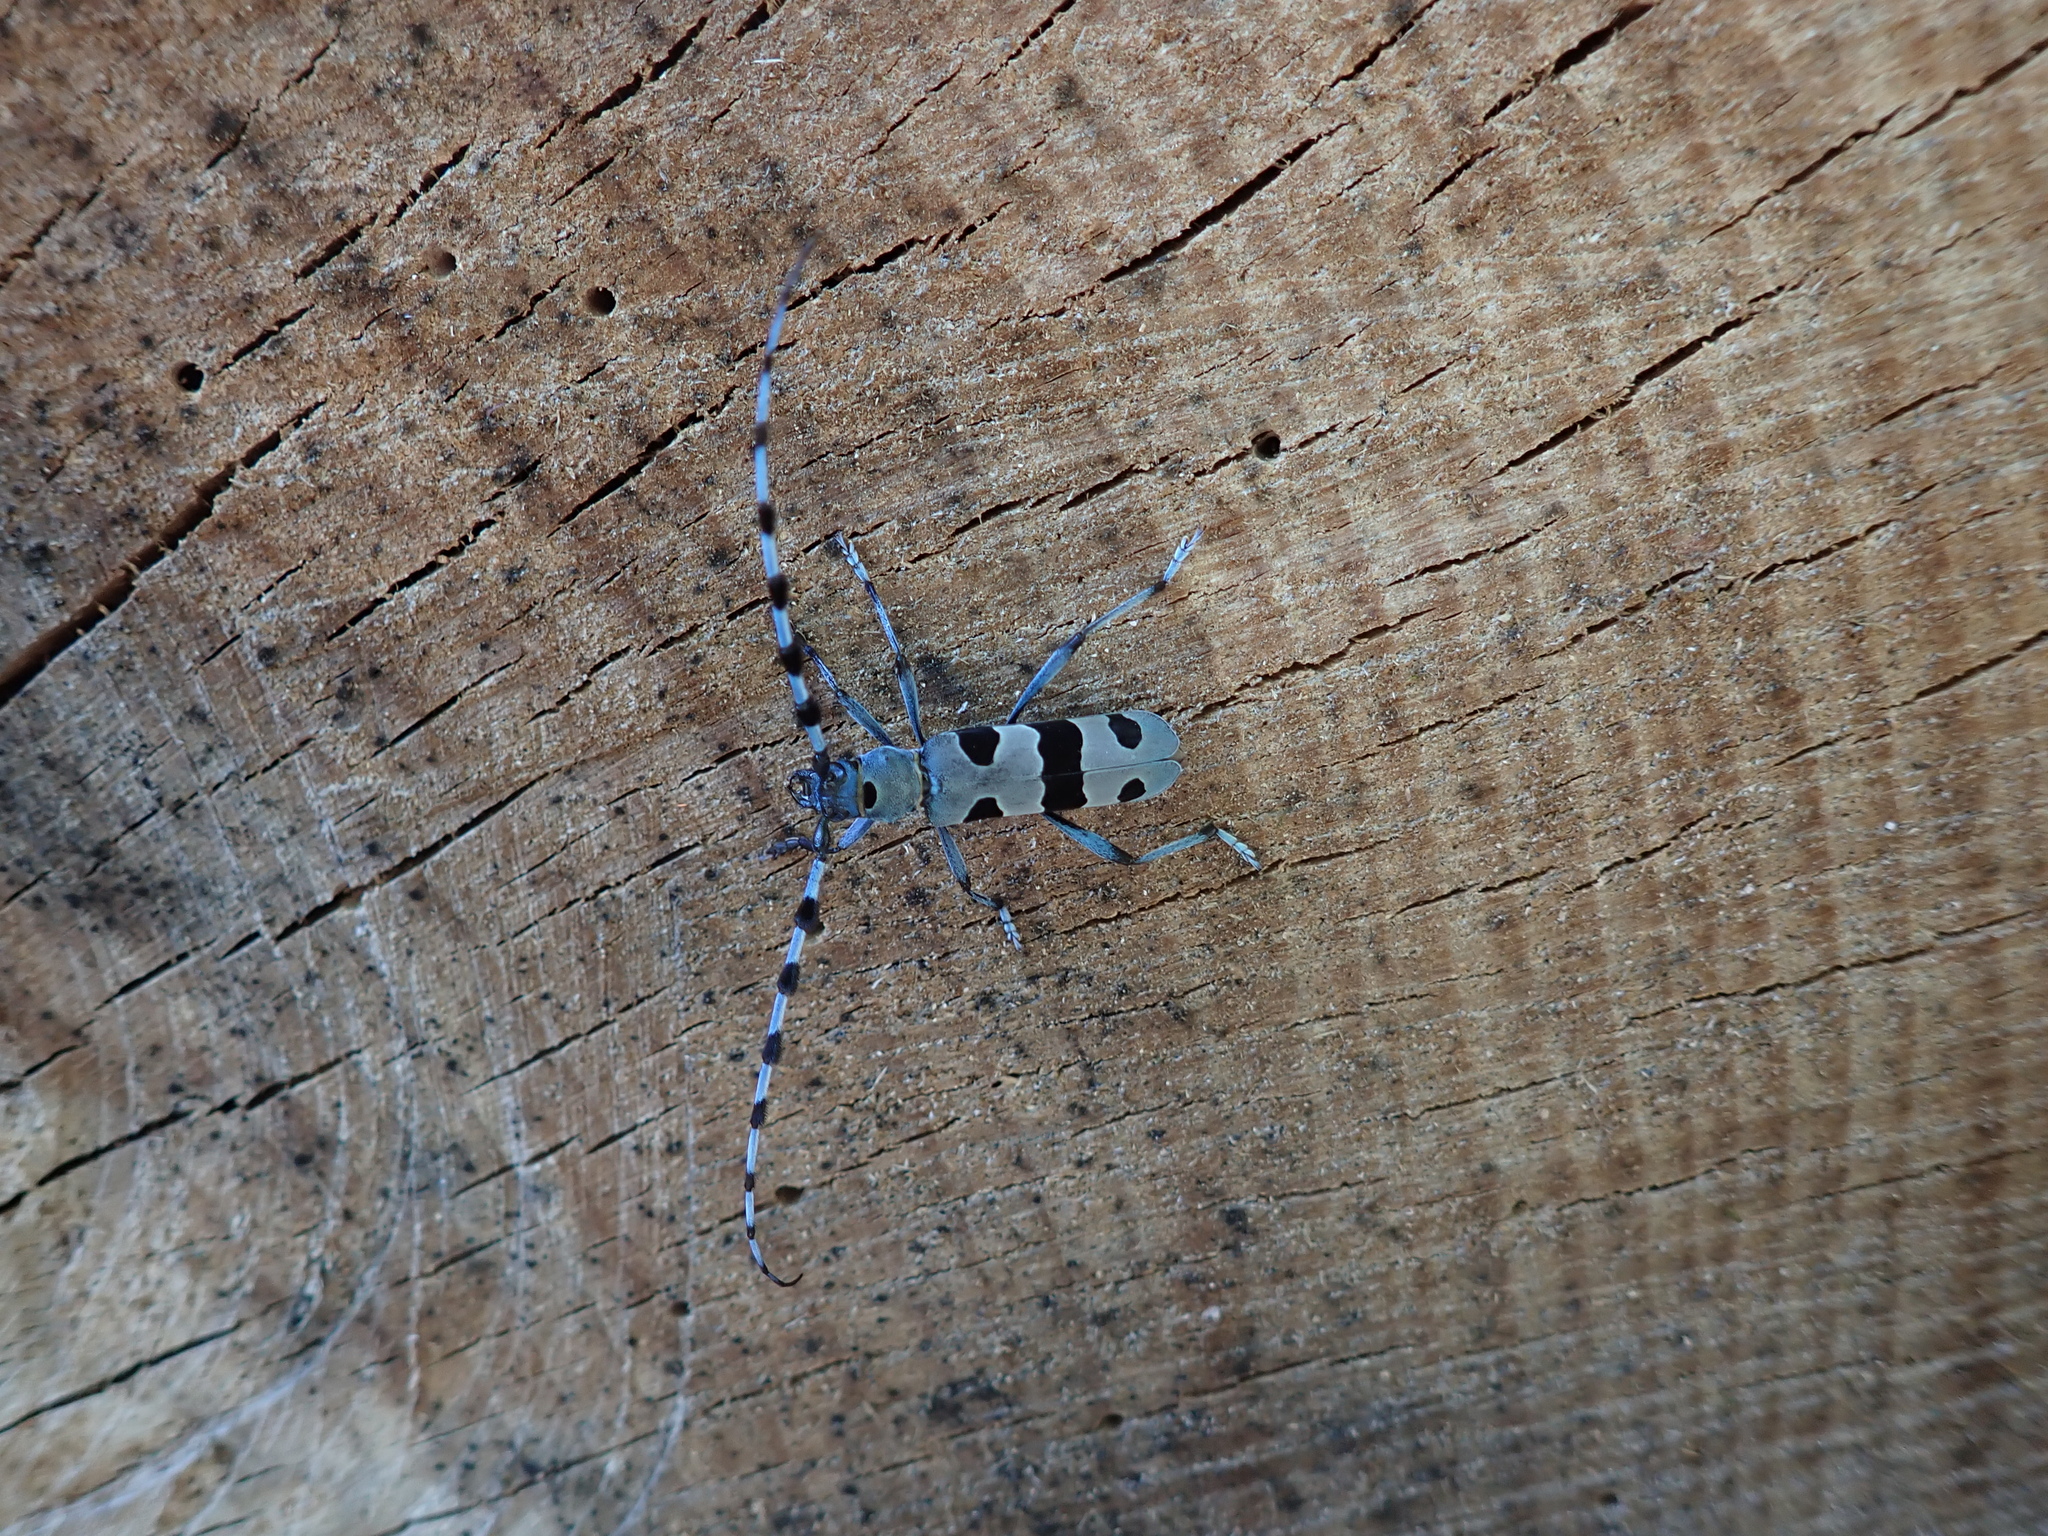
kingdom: Animalia
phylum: Arthropoda
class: Insecta
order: Coleoptera
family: Cerambycidae
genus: Rosalia
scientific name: Rosalia alpina
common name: Rosalia longicorn
